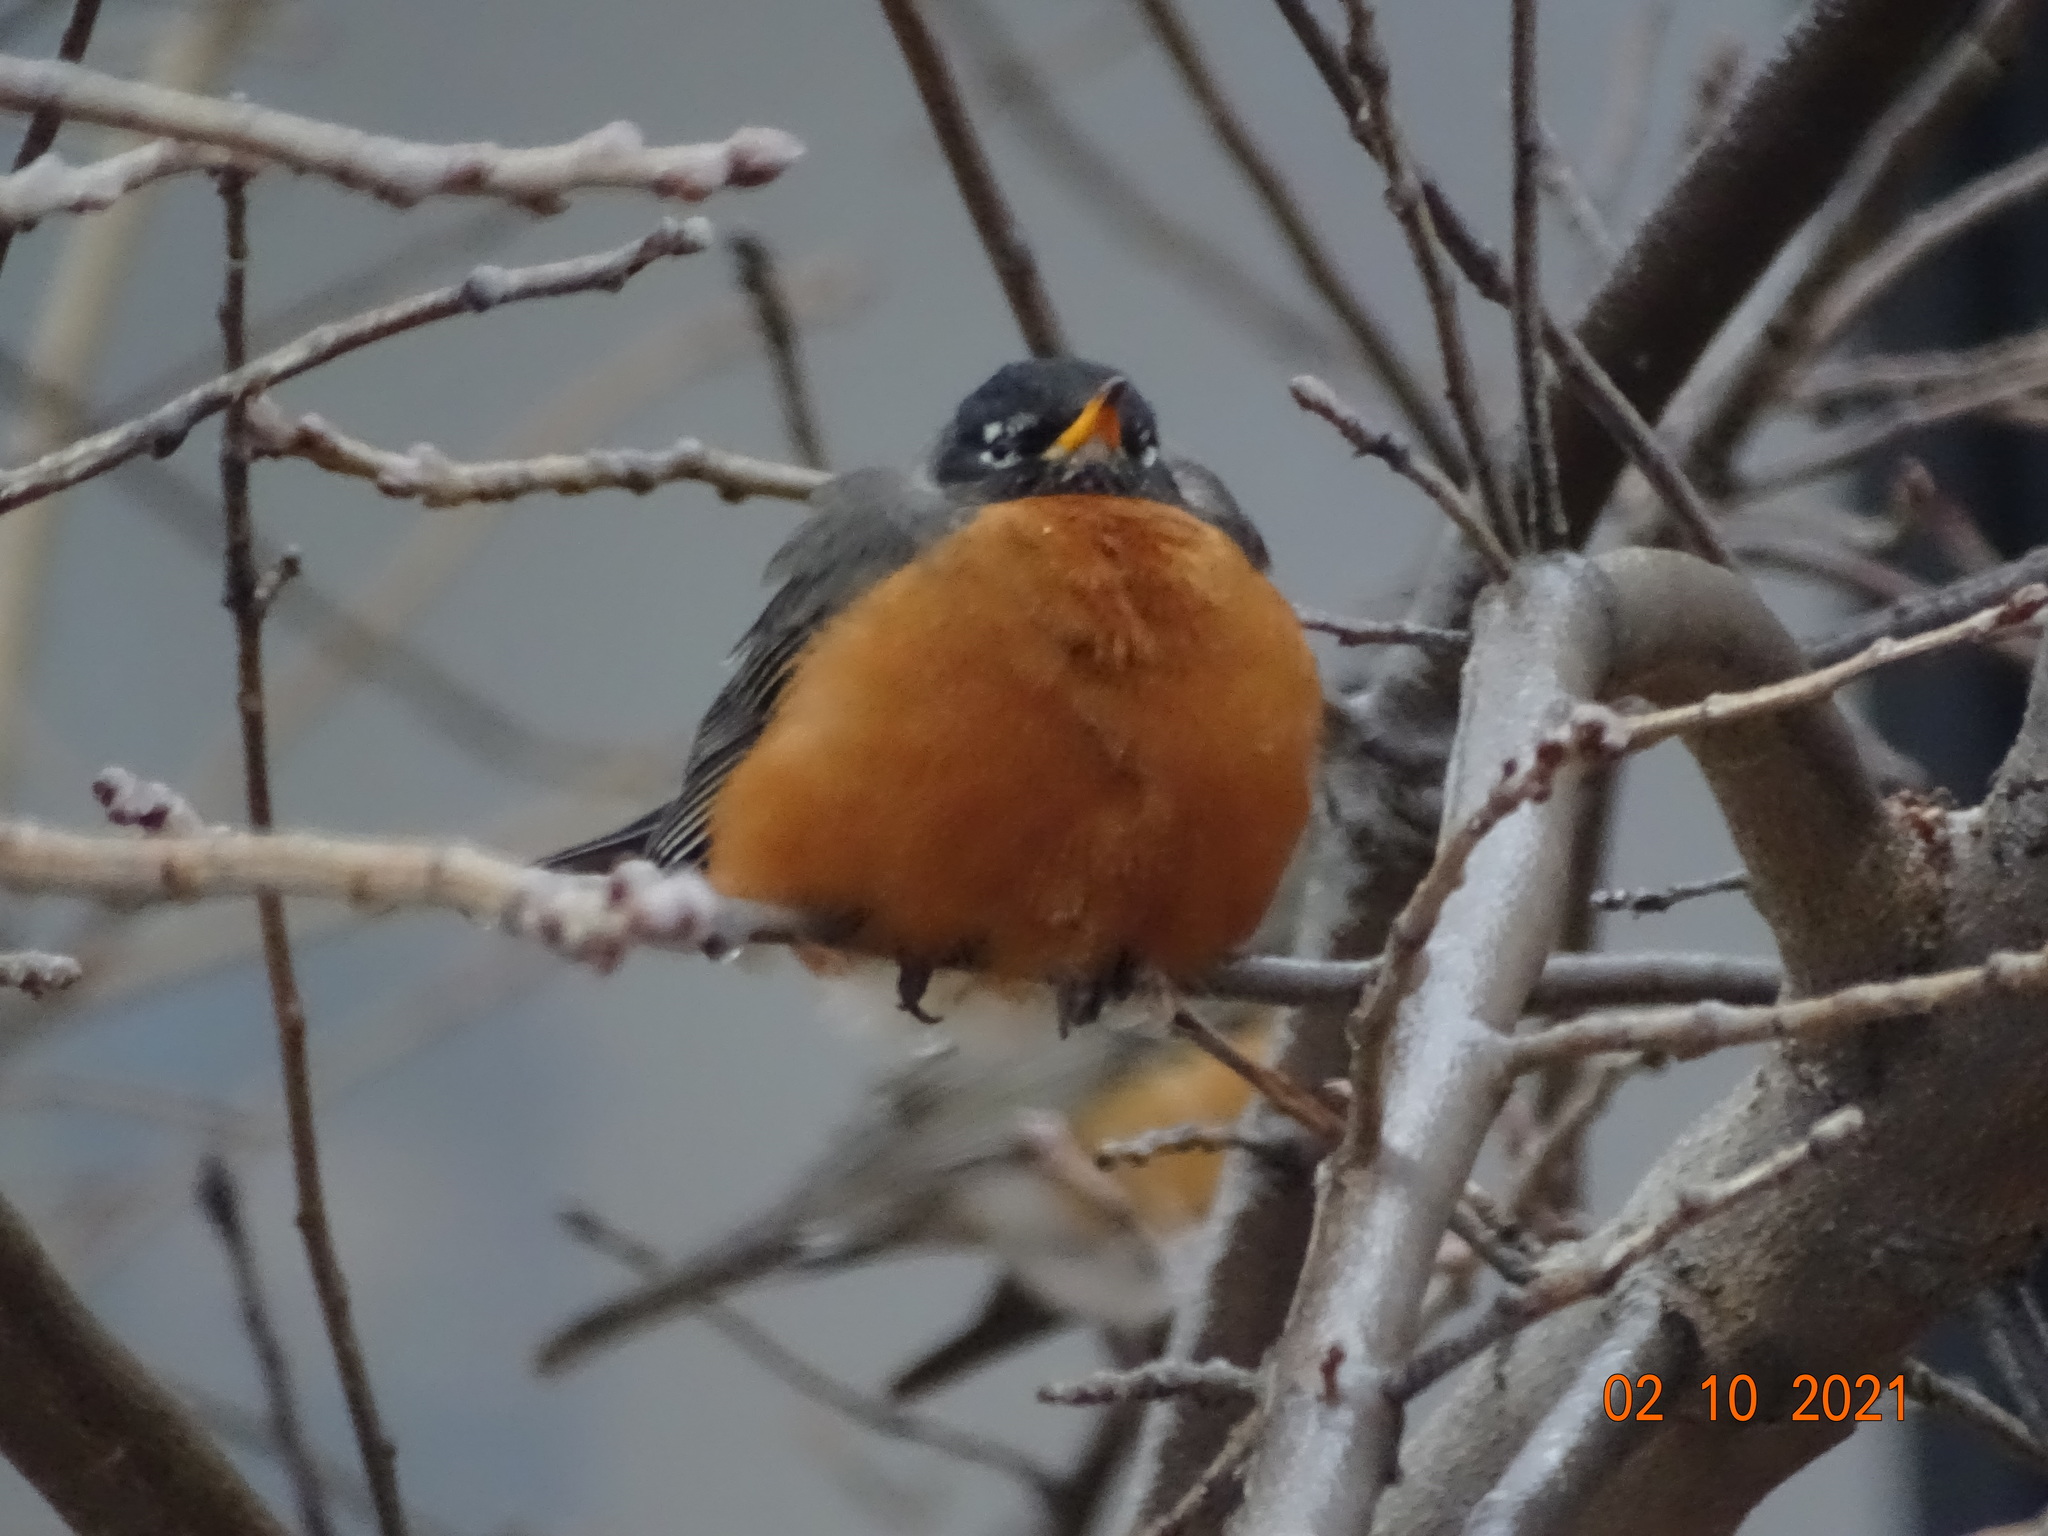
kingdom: Animalia
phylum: Chordata
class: Aves
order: Passeriformes
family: Turdidae
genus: Turdus
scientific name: Turdus migratorius
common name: American robin
